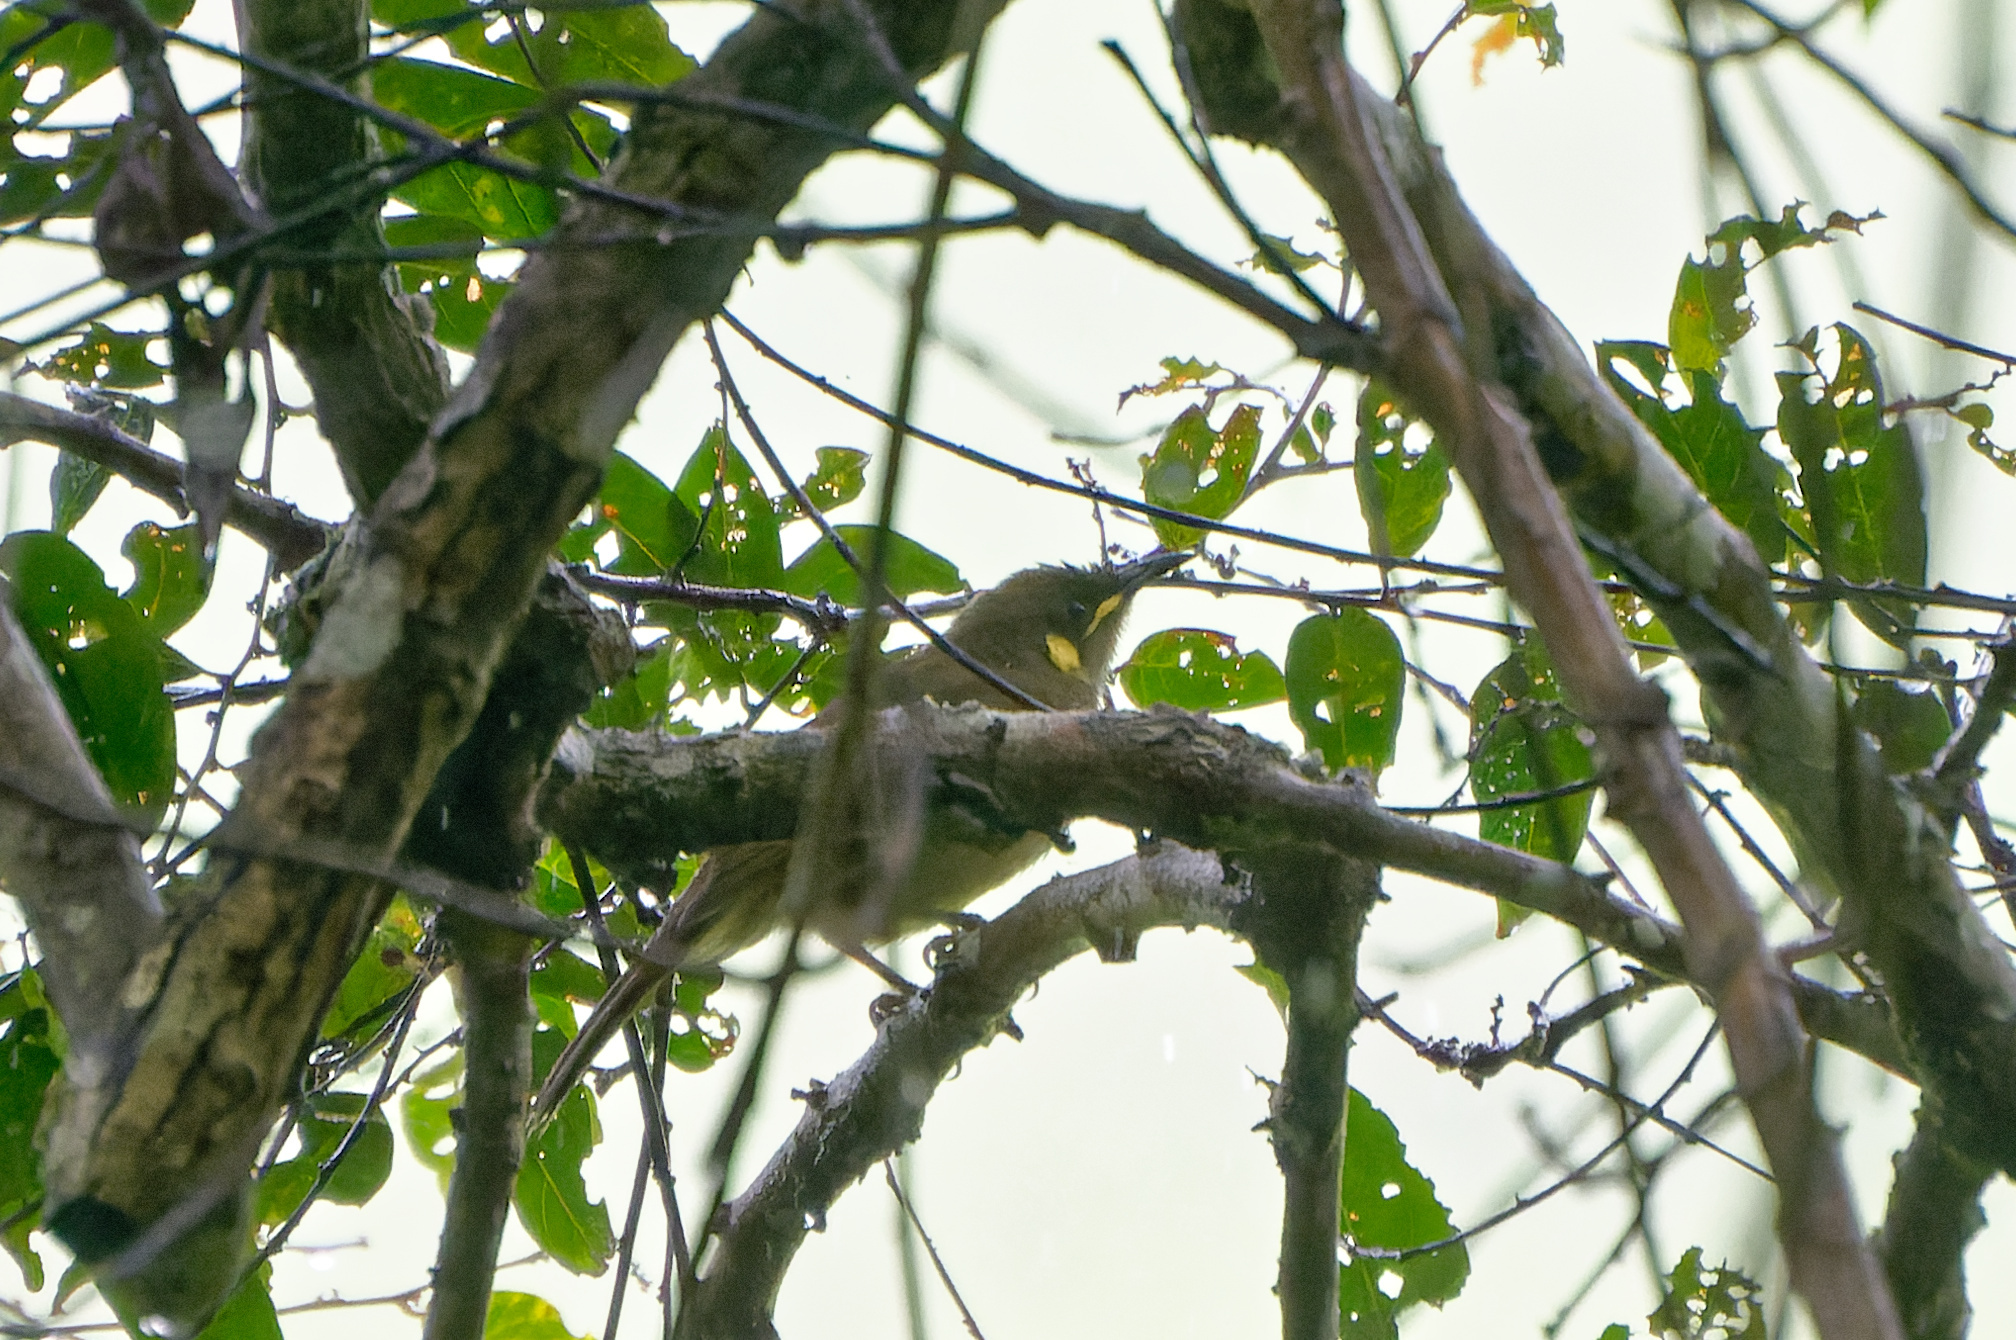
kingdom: Animalia
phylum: Chordata
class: Aves
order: Passeriformes
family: Meliphagidae
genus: Meliphaga
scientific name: Meliphaga notata
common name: Yellow-spotted honeyeater
